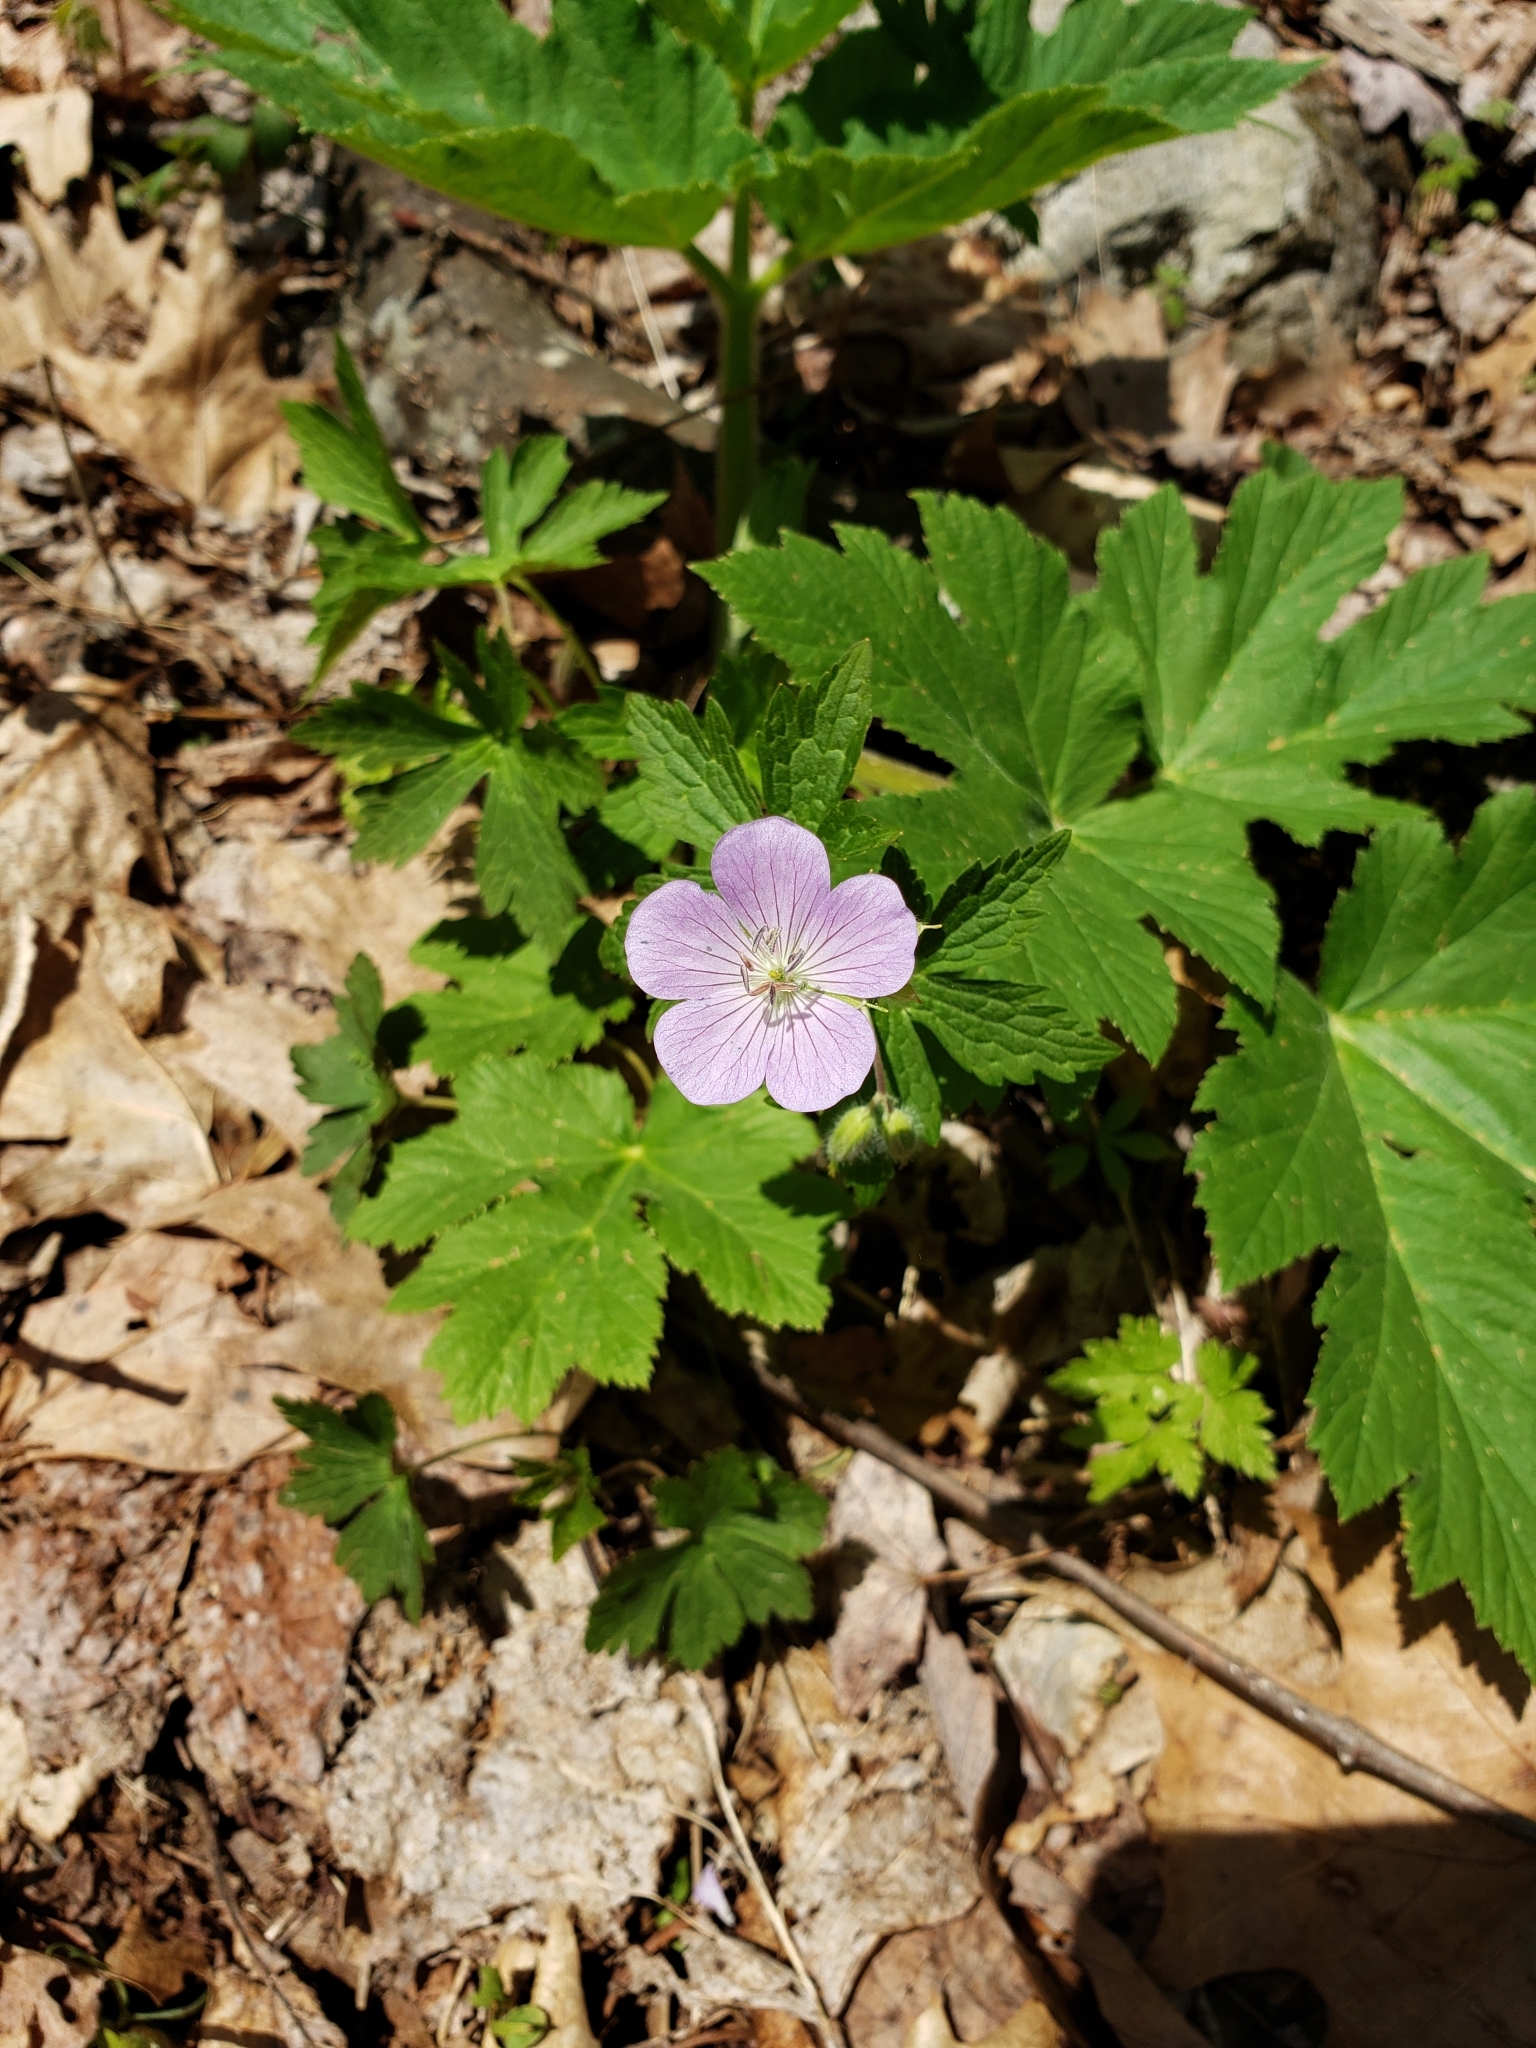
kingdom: Plantae
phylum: Tracheophyta
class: Magnoliopsida
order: Geraniales
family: Geraniaceae
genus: Geranium
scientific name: Geranium maculatum
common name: Spotted geranium
